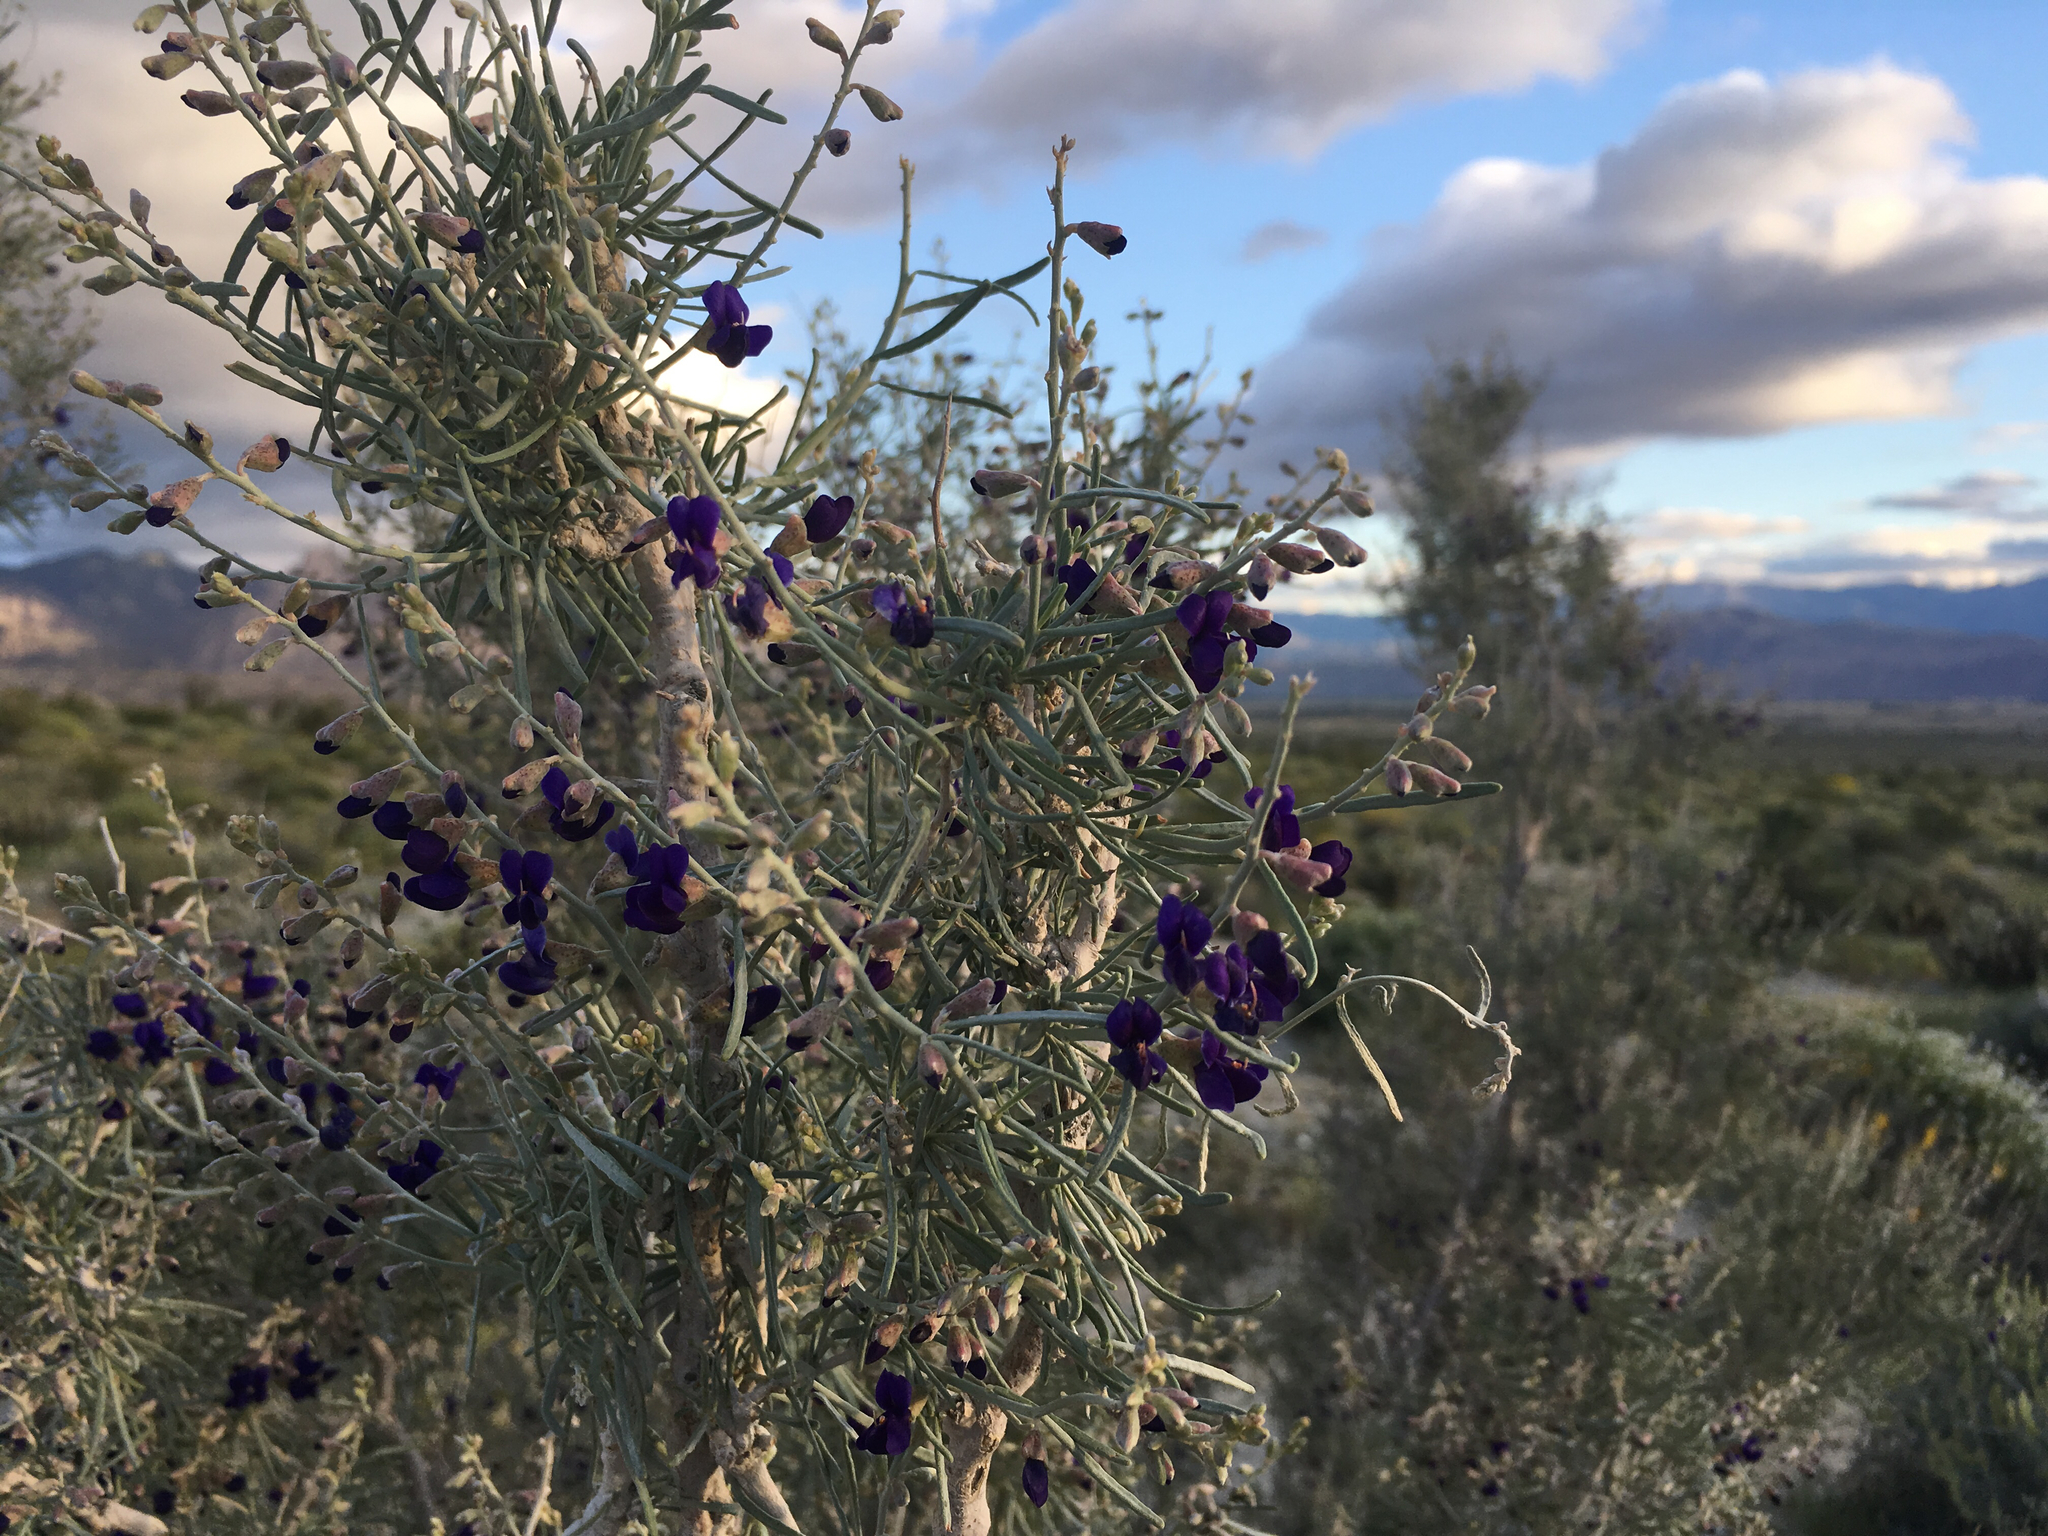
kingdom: Plantae
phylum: Tracheophyta
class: Magnoliopsida
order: Fabales
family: Fabaceae
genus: Psorothamnus
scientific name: Psorothamnus schottii
